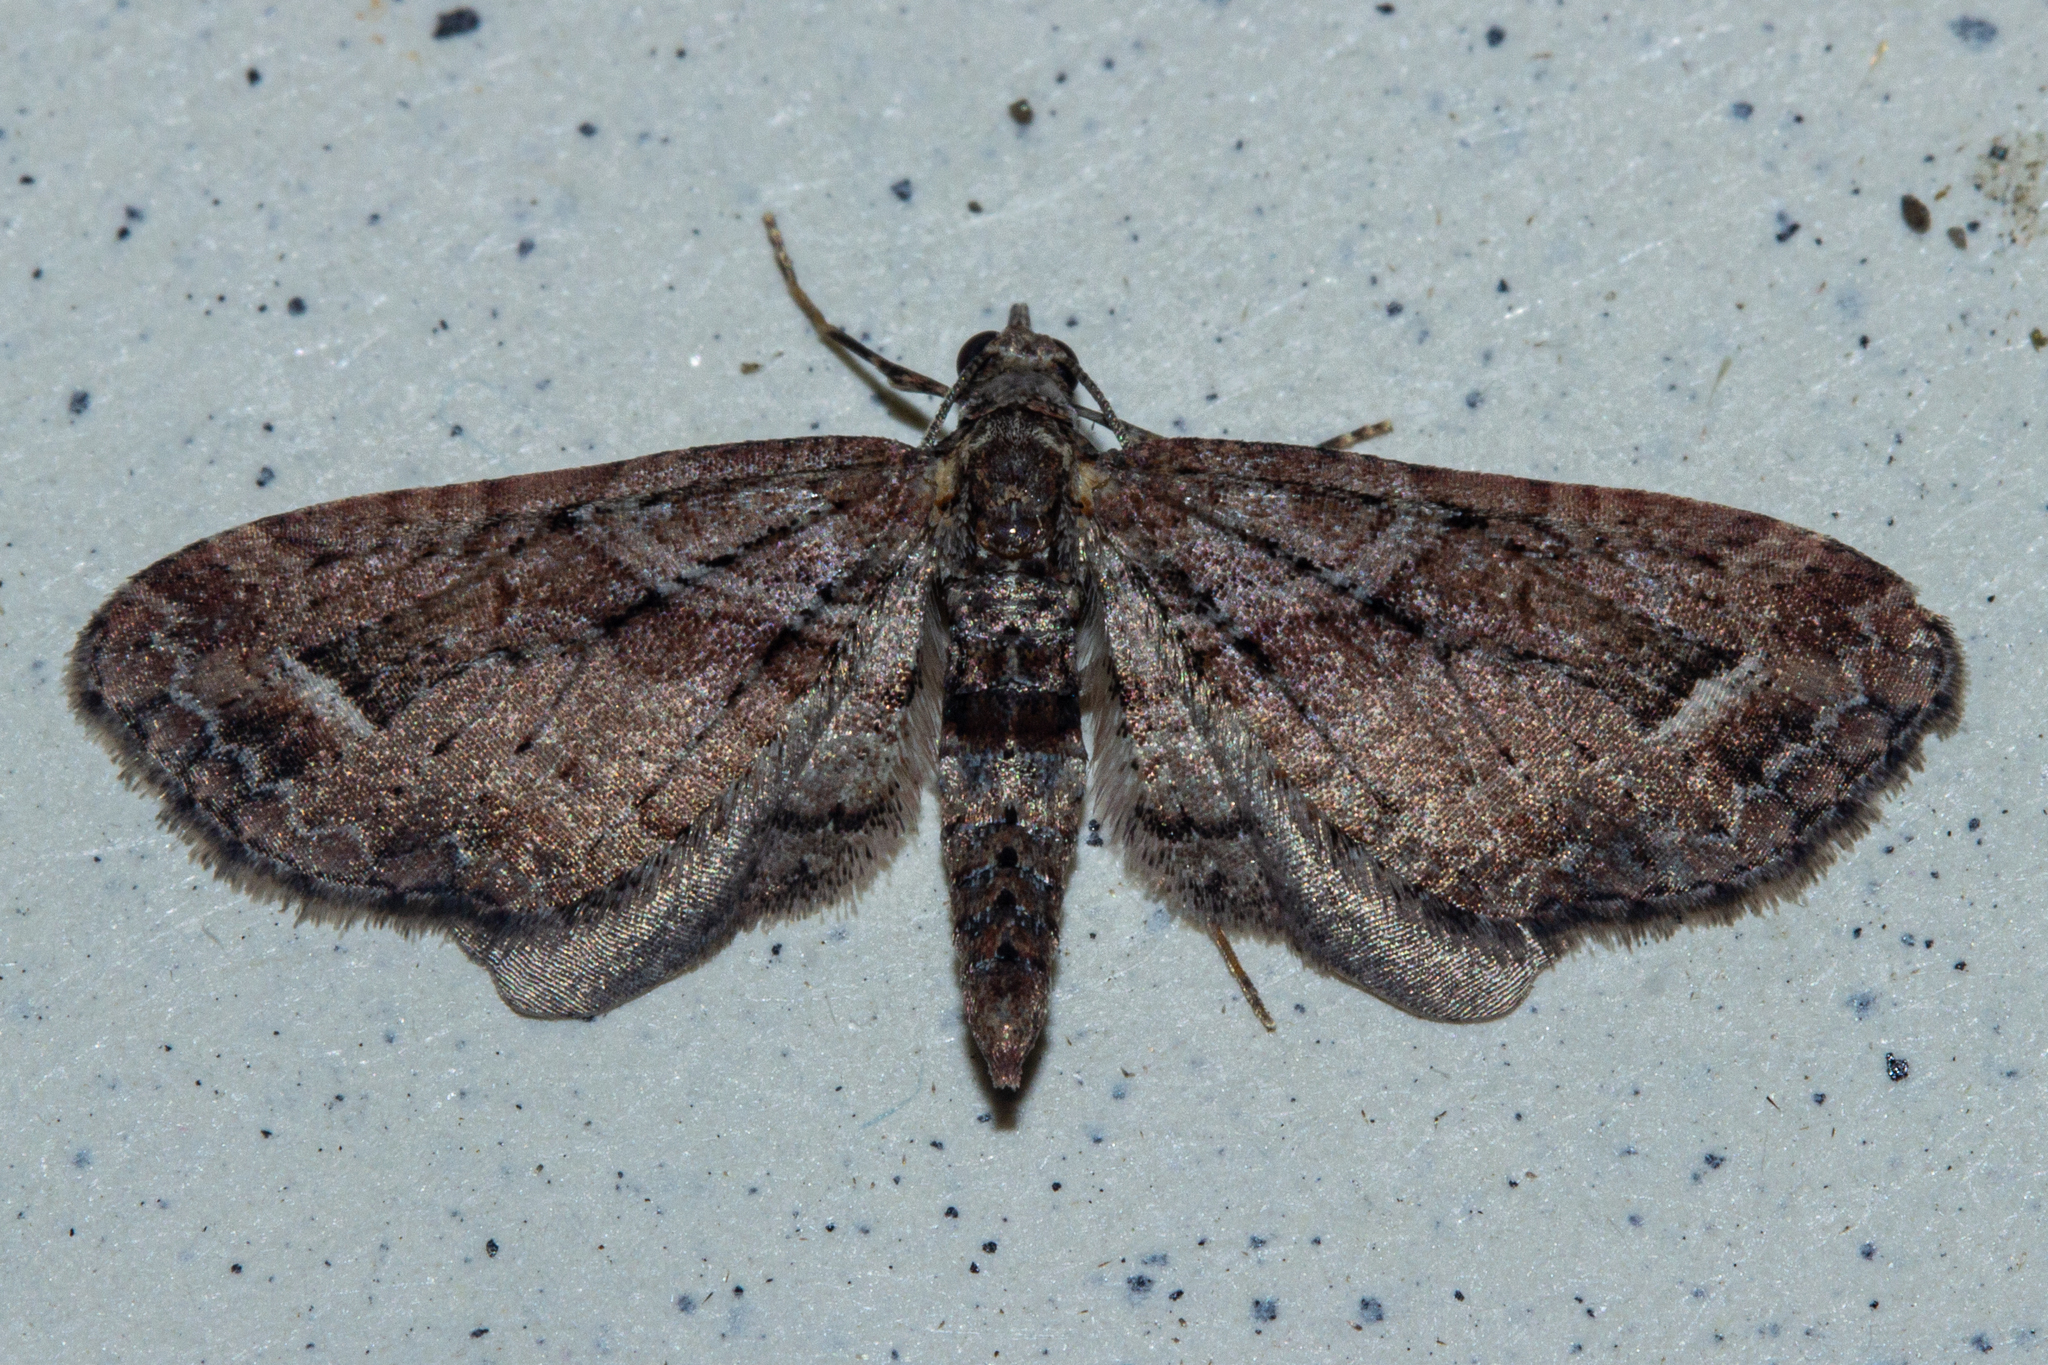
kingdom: Animalia
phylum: Arthropoda
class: Insecta
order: Lepidoptera
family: Geometridae
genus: Idaea
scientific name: Idaea mutanda
